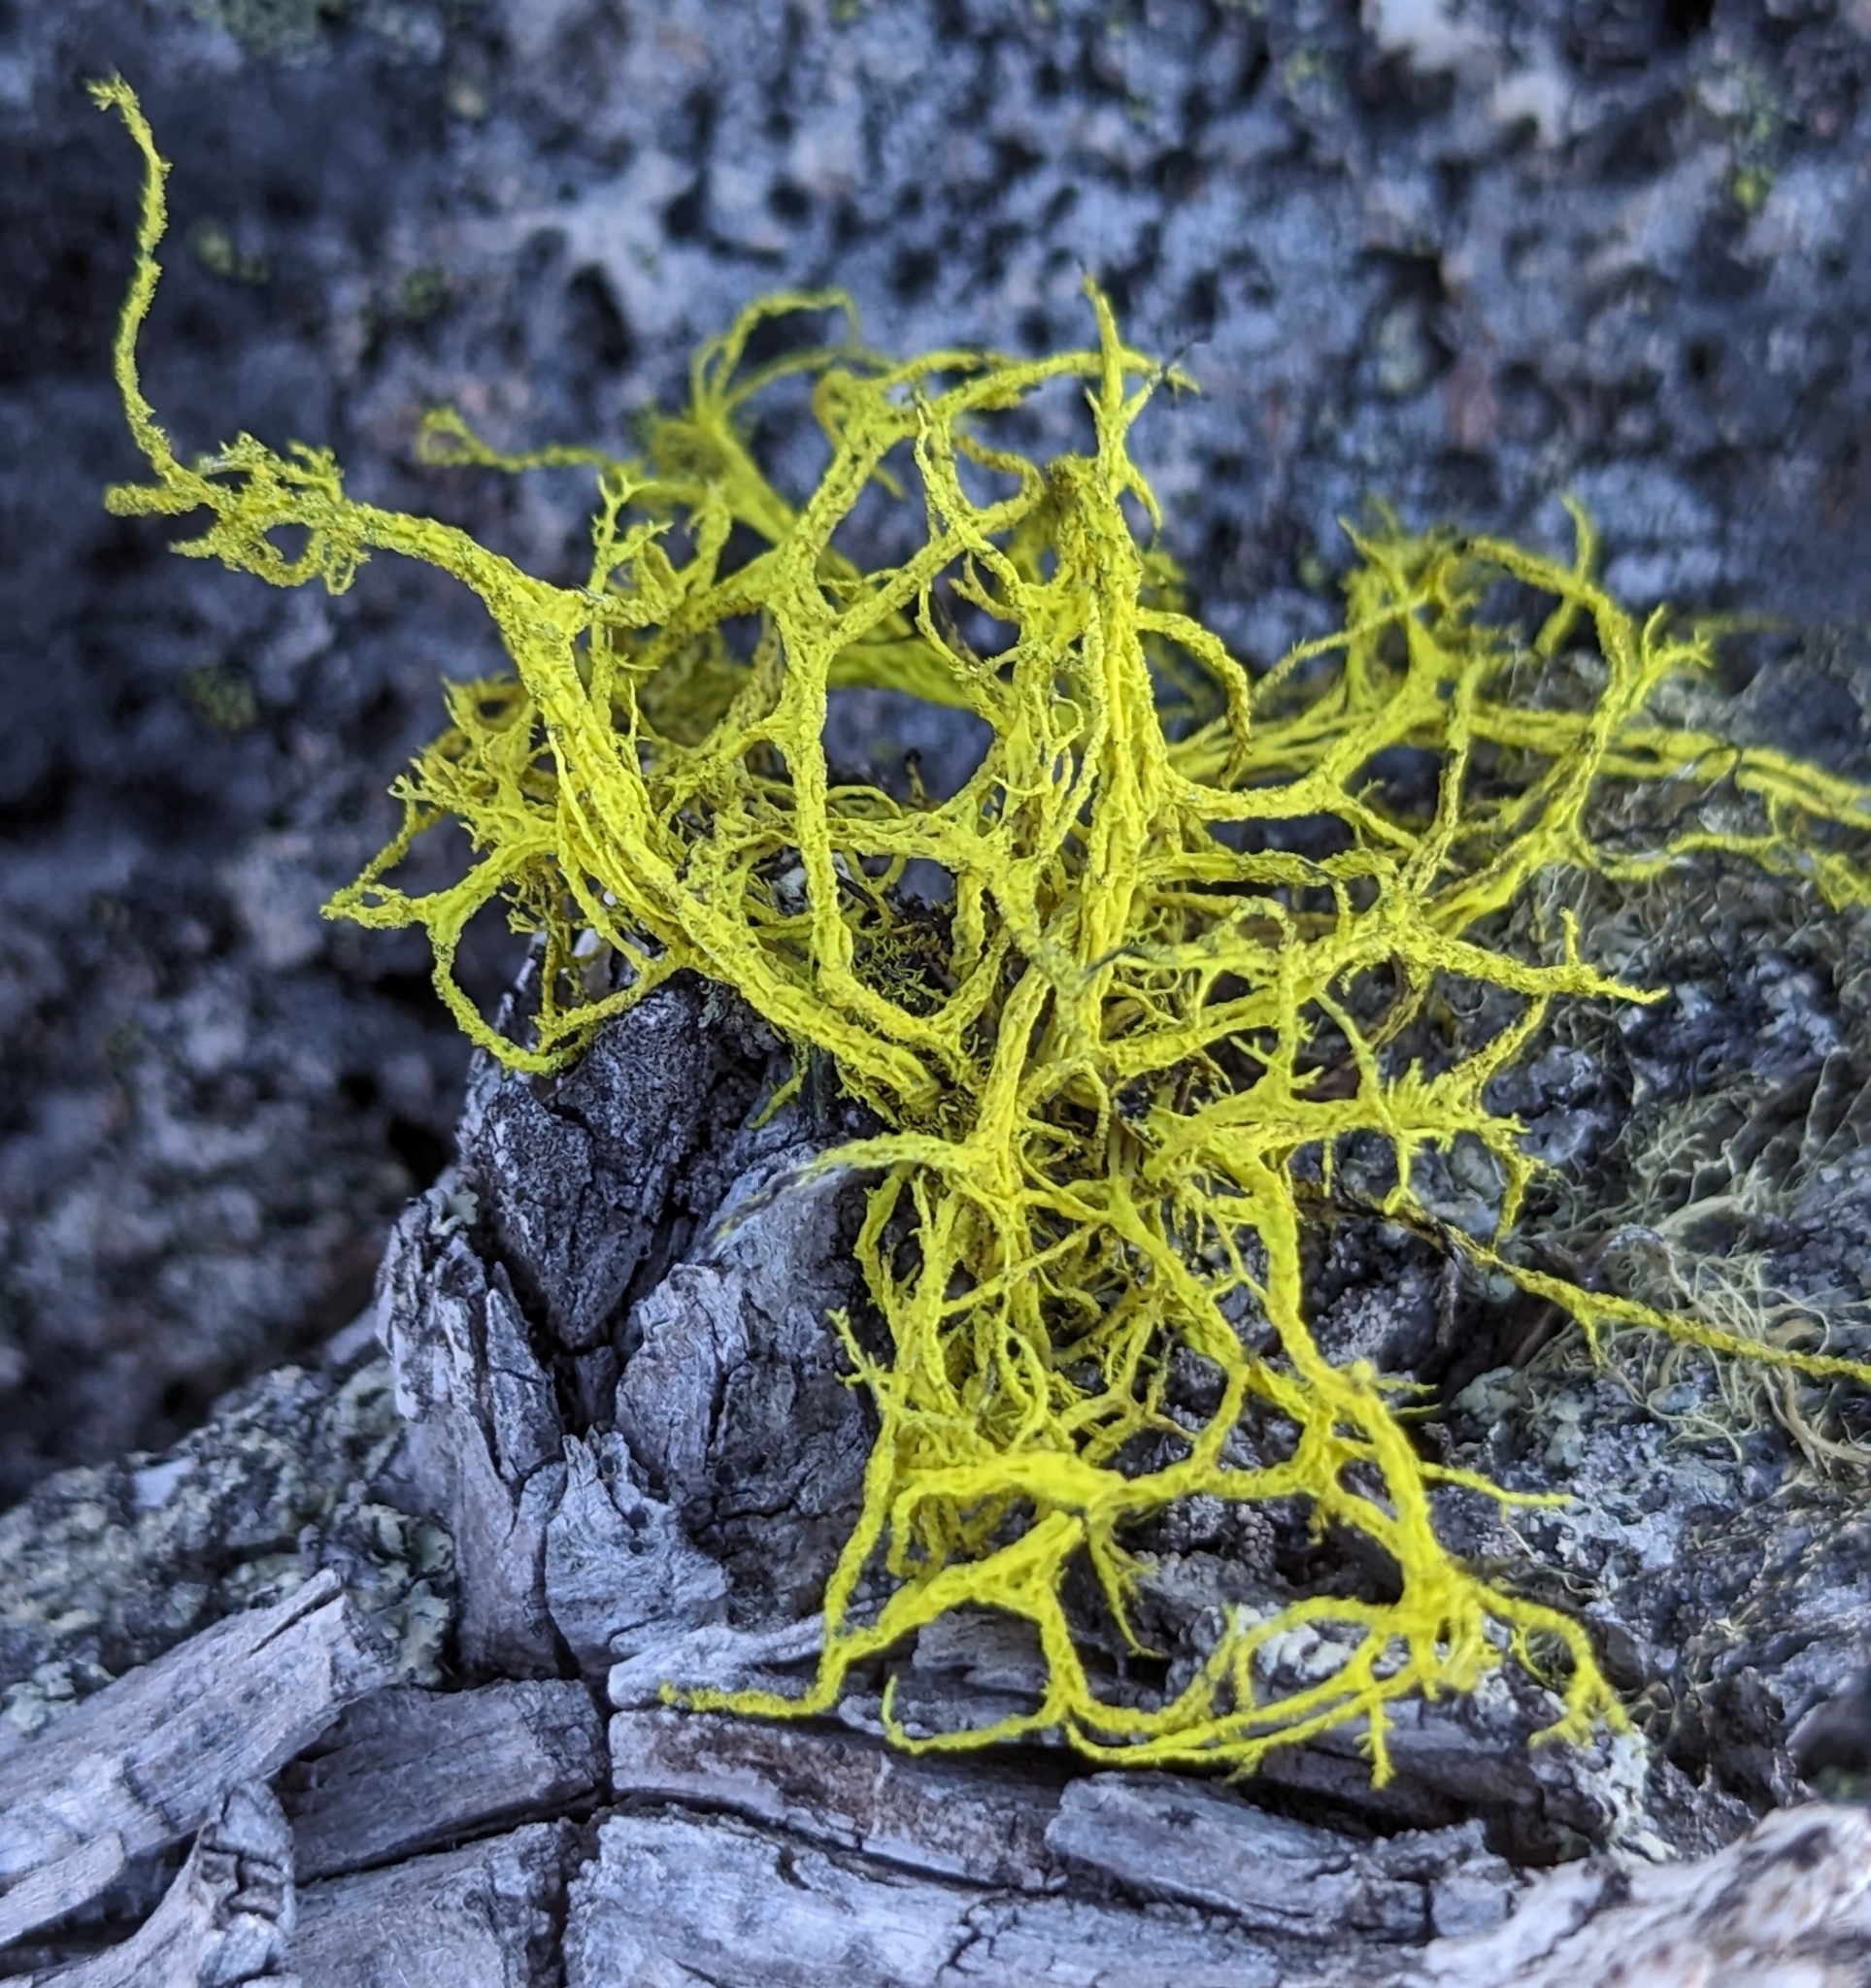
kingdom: Fungi
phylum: Ascomycota
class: Lecanoromycetes
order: Lecanorales
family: Parmeliaceae
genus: Letharia
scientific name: Letharia vulpina
